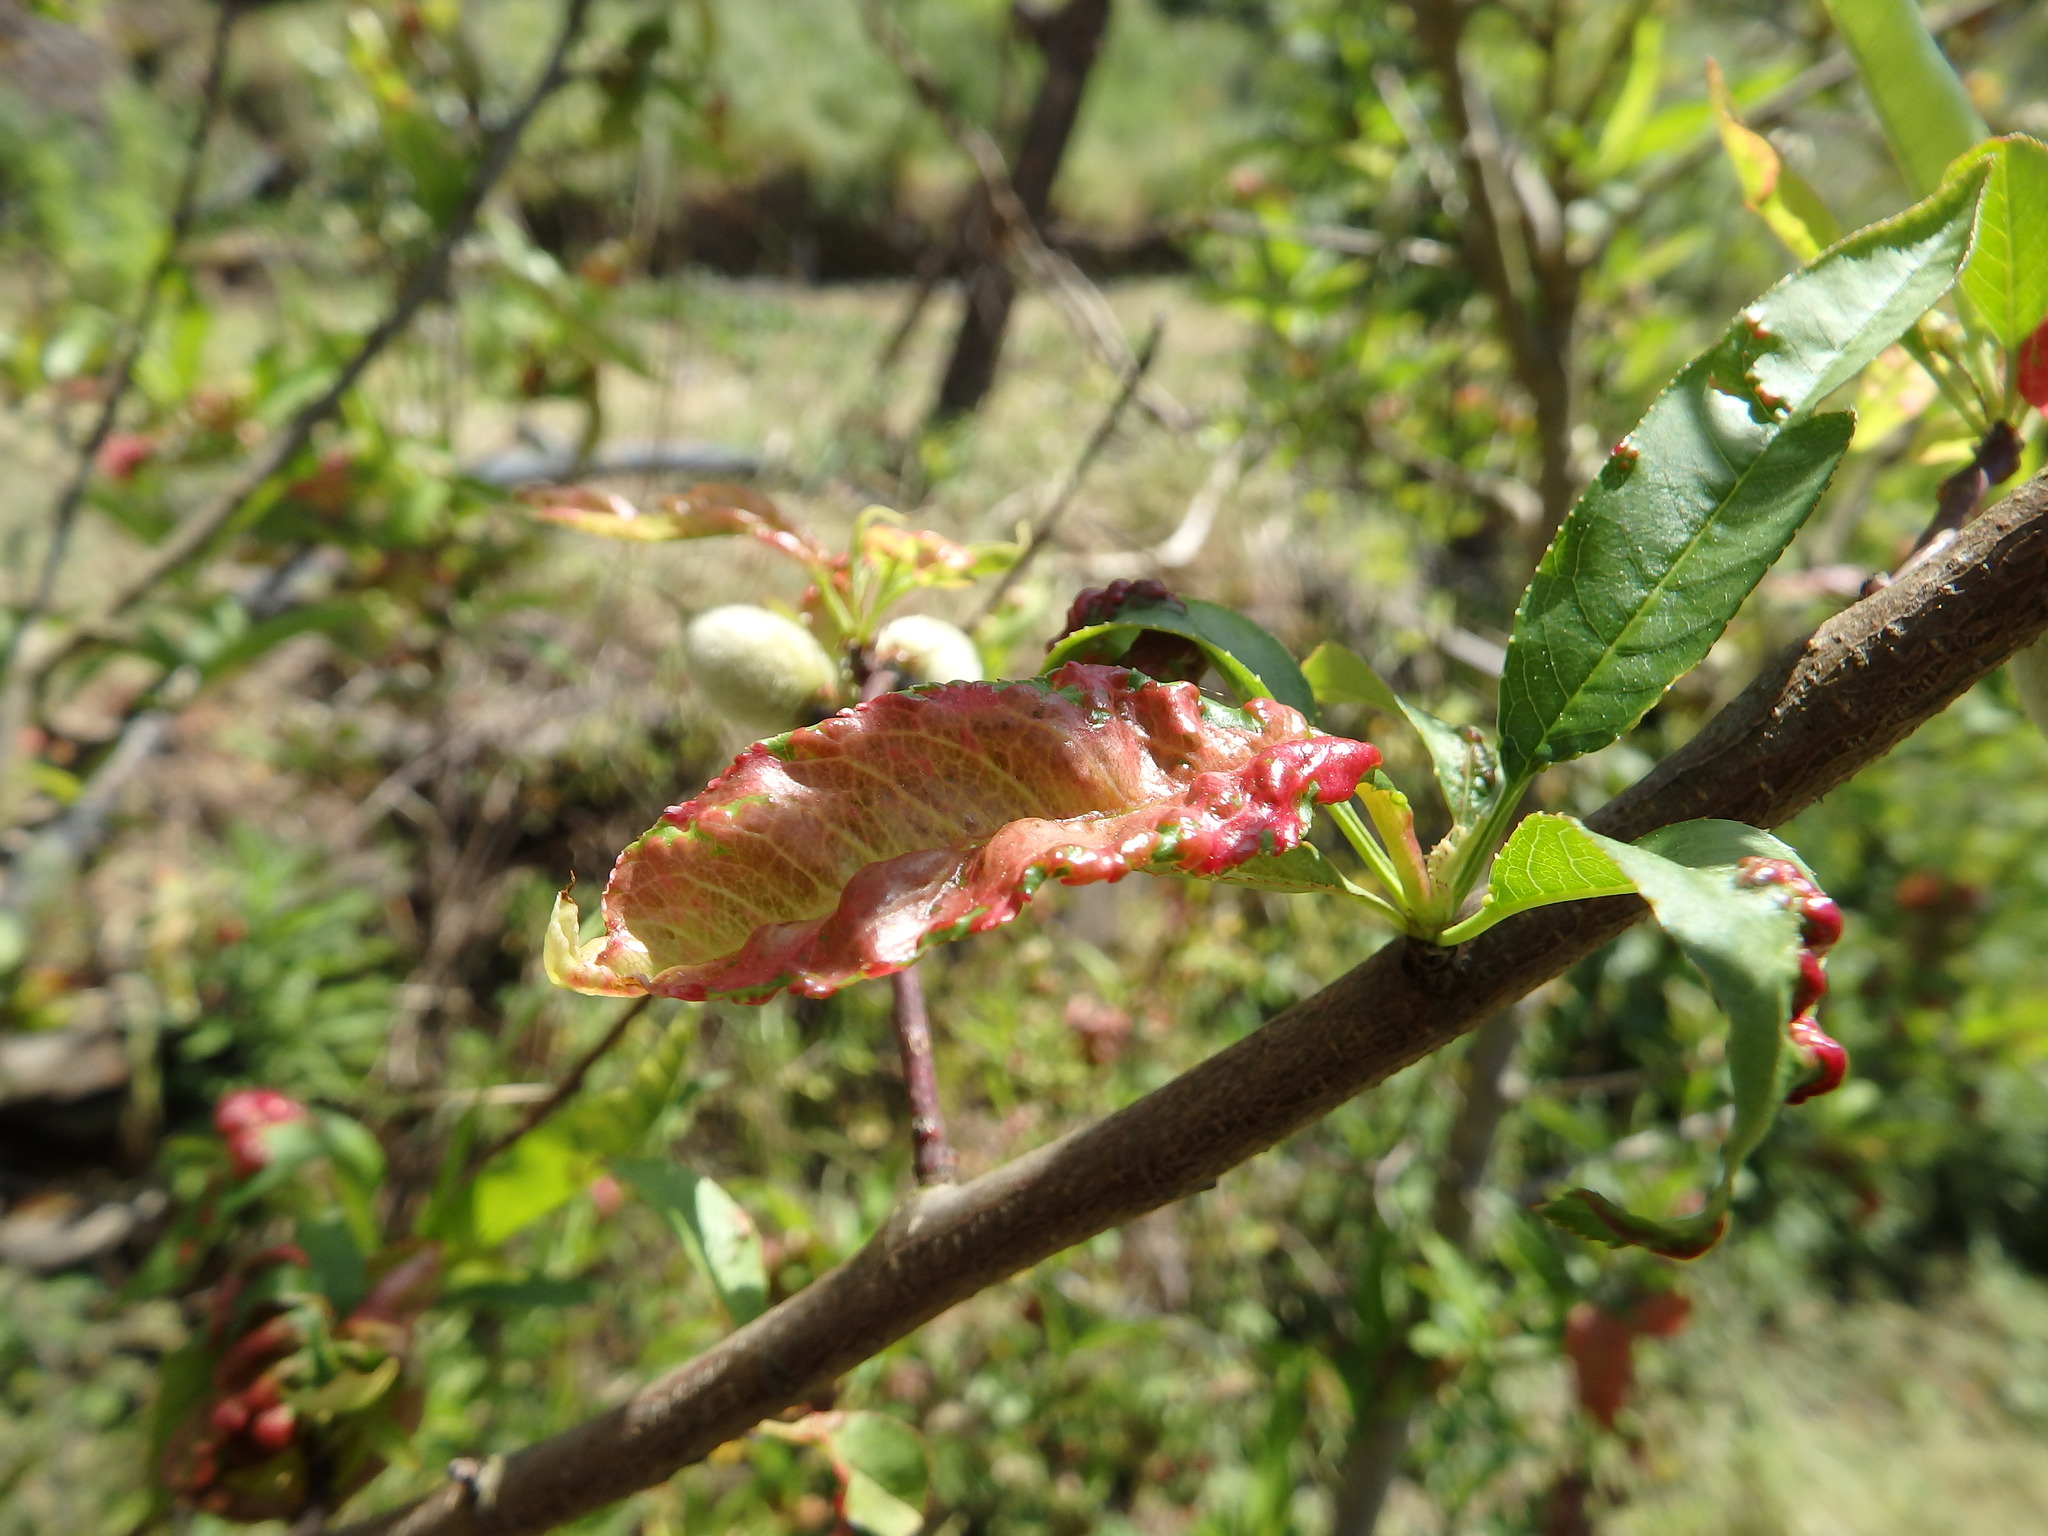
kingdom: Fungi
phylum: Ascomycota
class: Taphrinomycetes
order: Taphrinales
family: Taphrinaceae
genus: Taphrina
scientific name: Taphrina deformans
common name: Peach leaf curl
